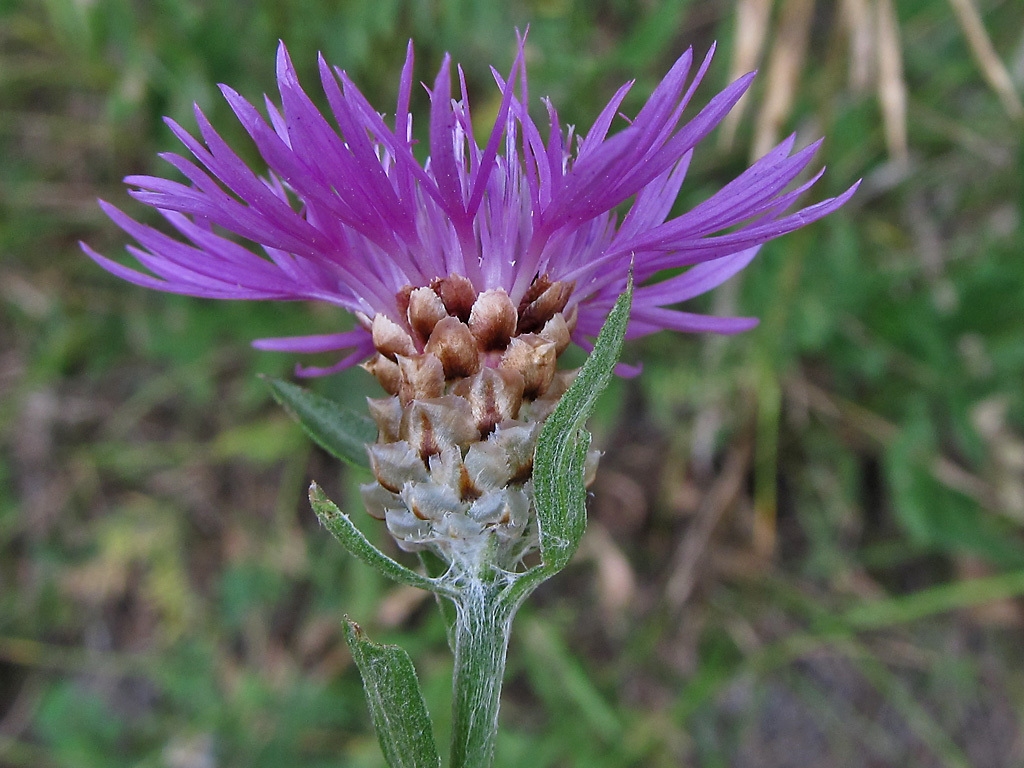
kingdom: Plantae
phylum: Tracheophyta
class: Magnoliopsida
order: Asterales
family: Asteraceae
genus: Centaurea
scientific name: Centaurea jacea
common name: Brown knapweed
